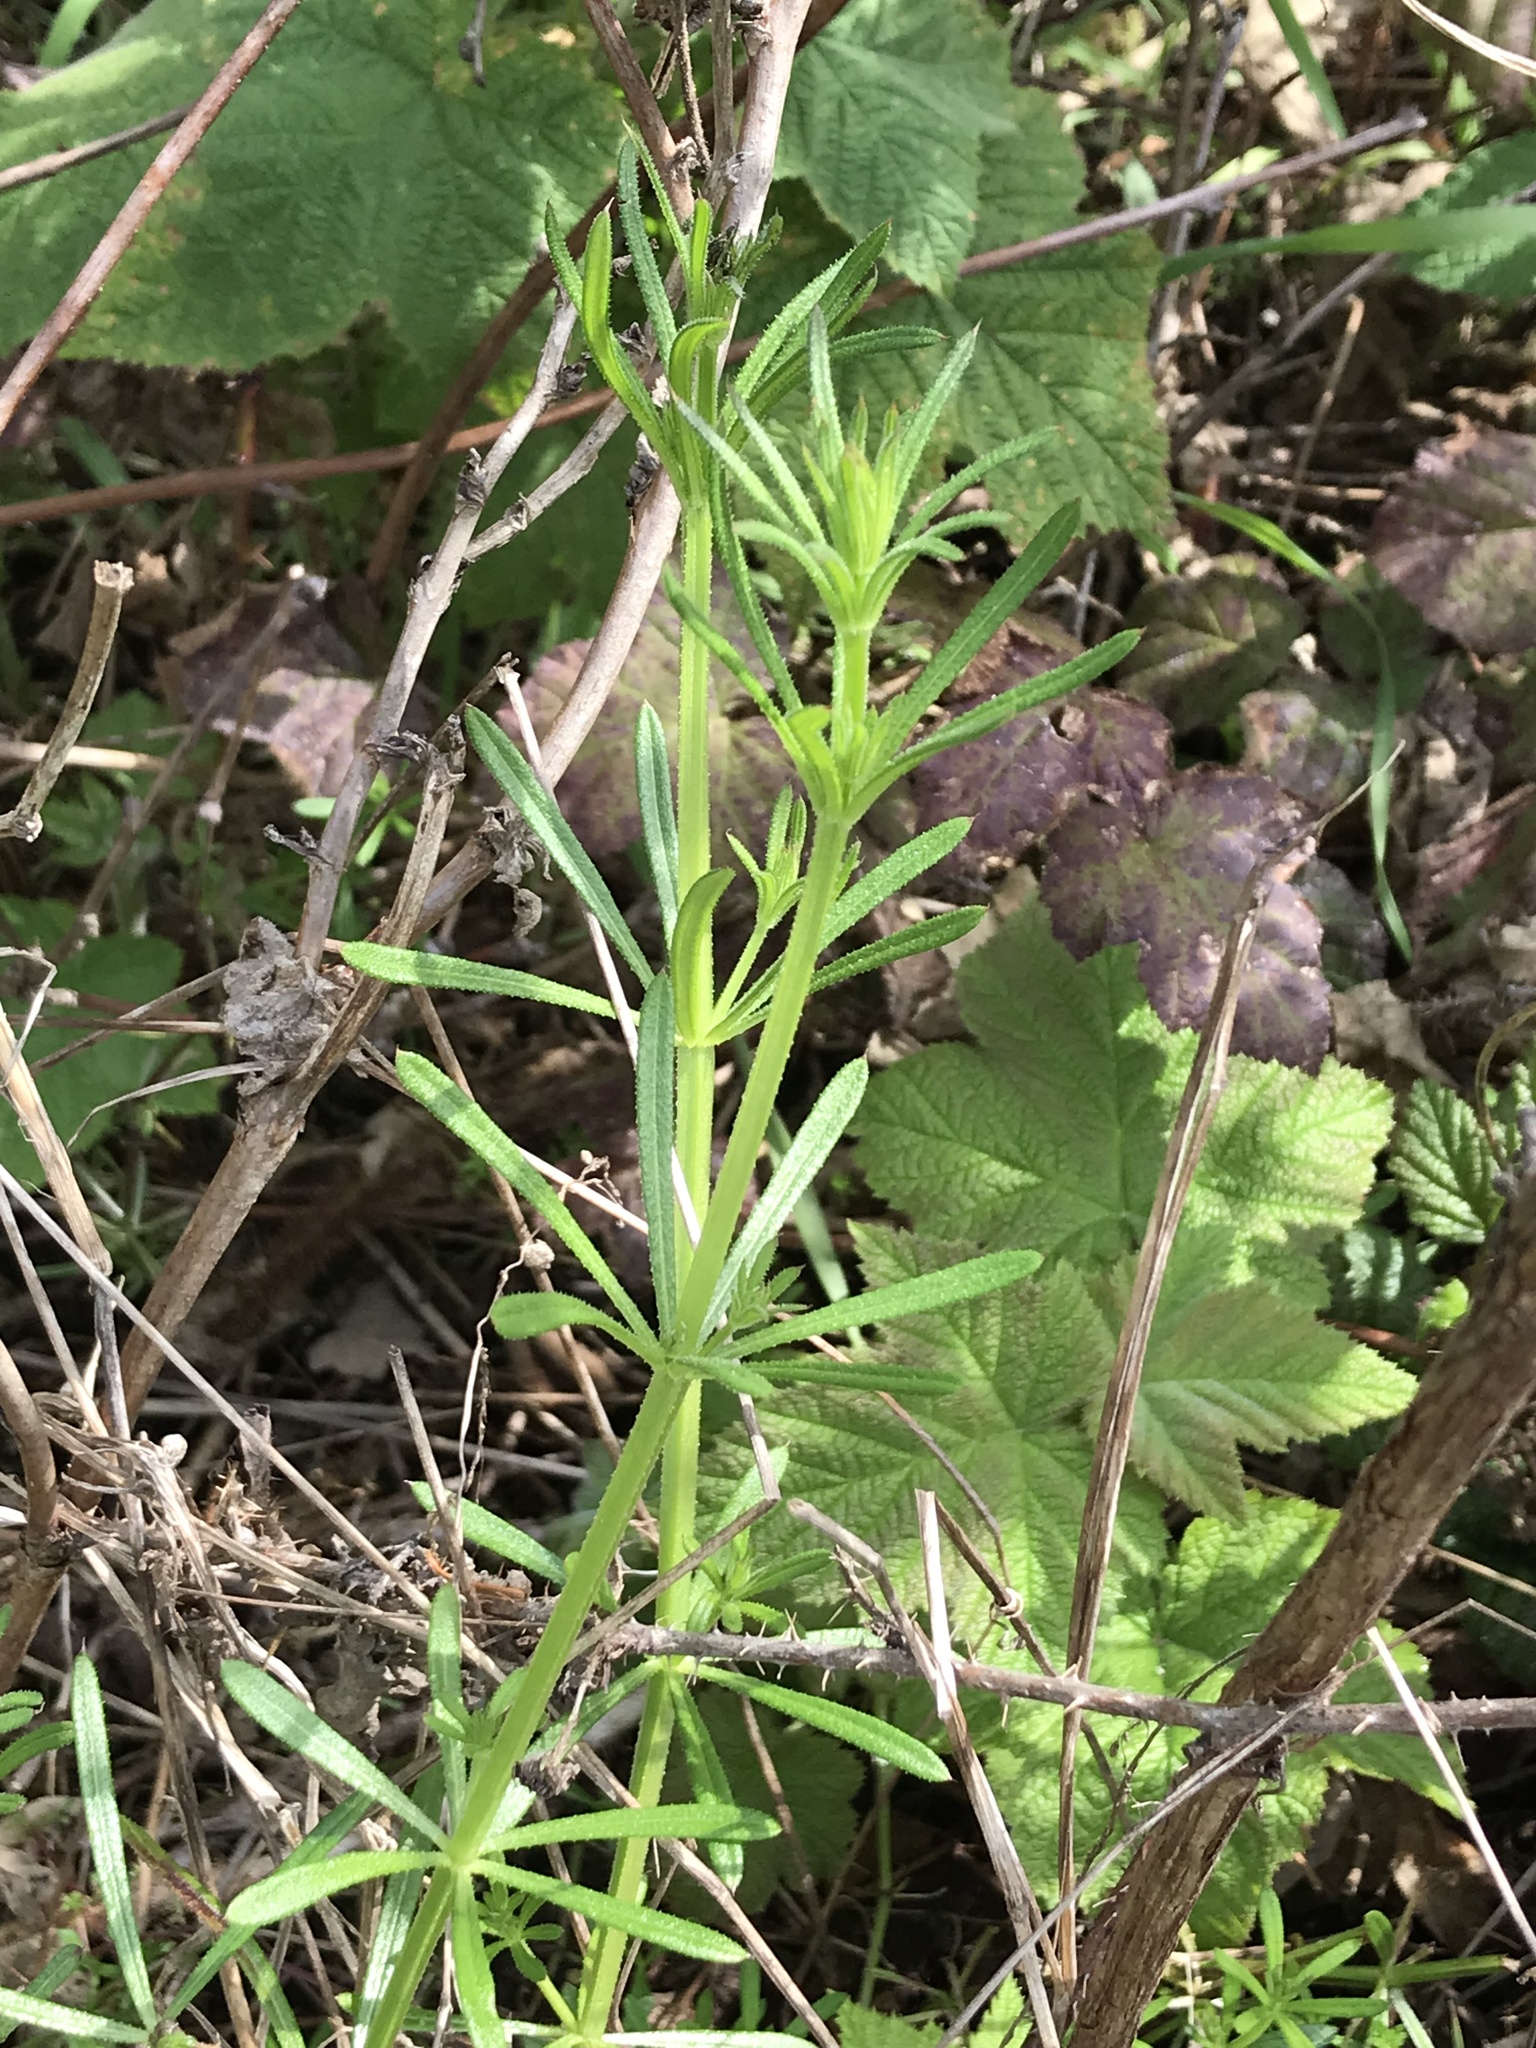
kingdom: Plantae
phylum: Tracheophyta
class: Magnoliopsida
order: Gentianales
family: Rubiaceae
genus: Galium
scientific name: Galium aparine
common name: Cleavers
